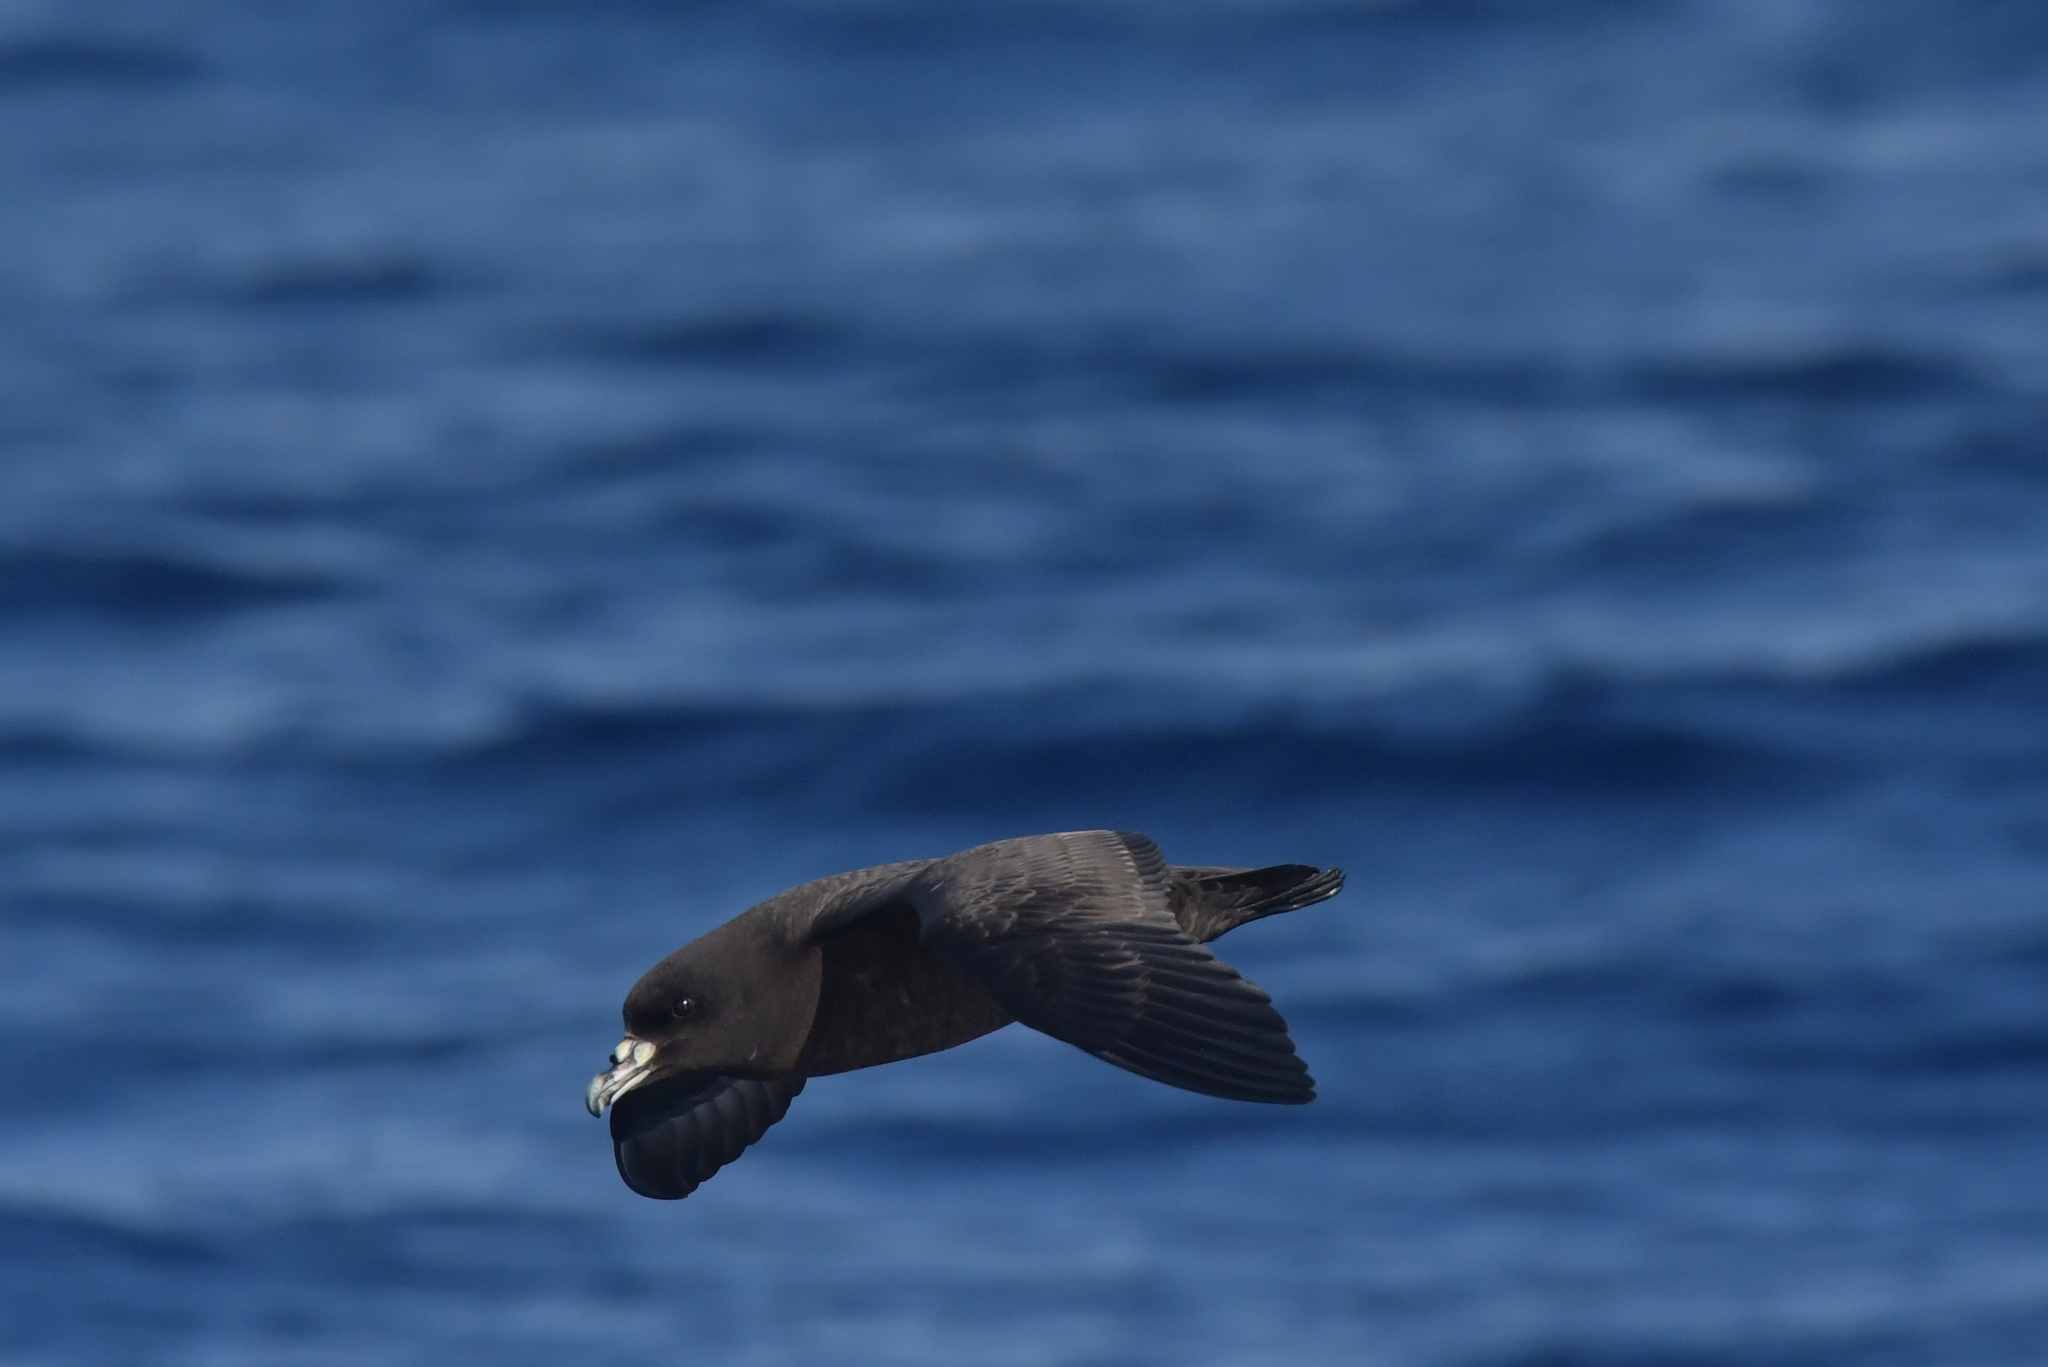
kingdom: Animalia
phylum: Chordata
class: Aves
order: Procellariiformes
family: Procellariidae
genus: Procellaria
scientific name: Procellaria parkinsoni
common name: Black petrel
